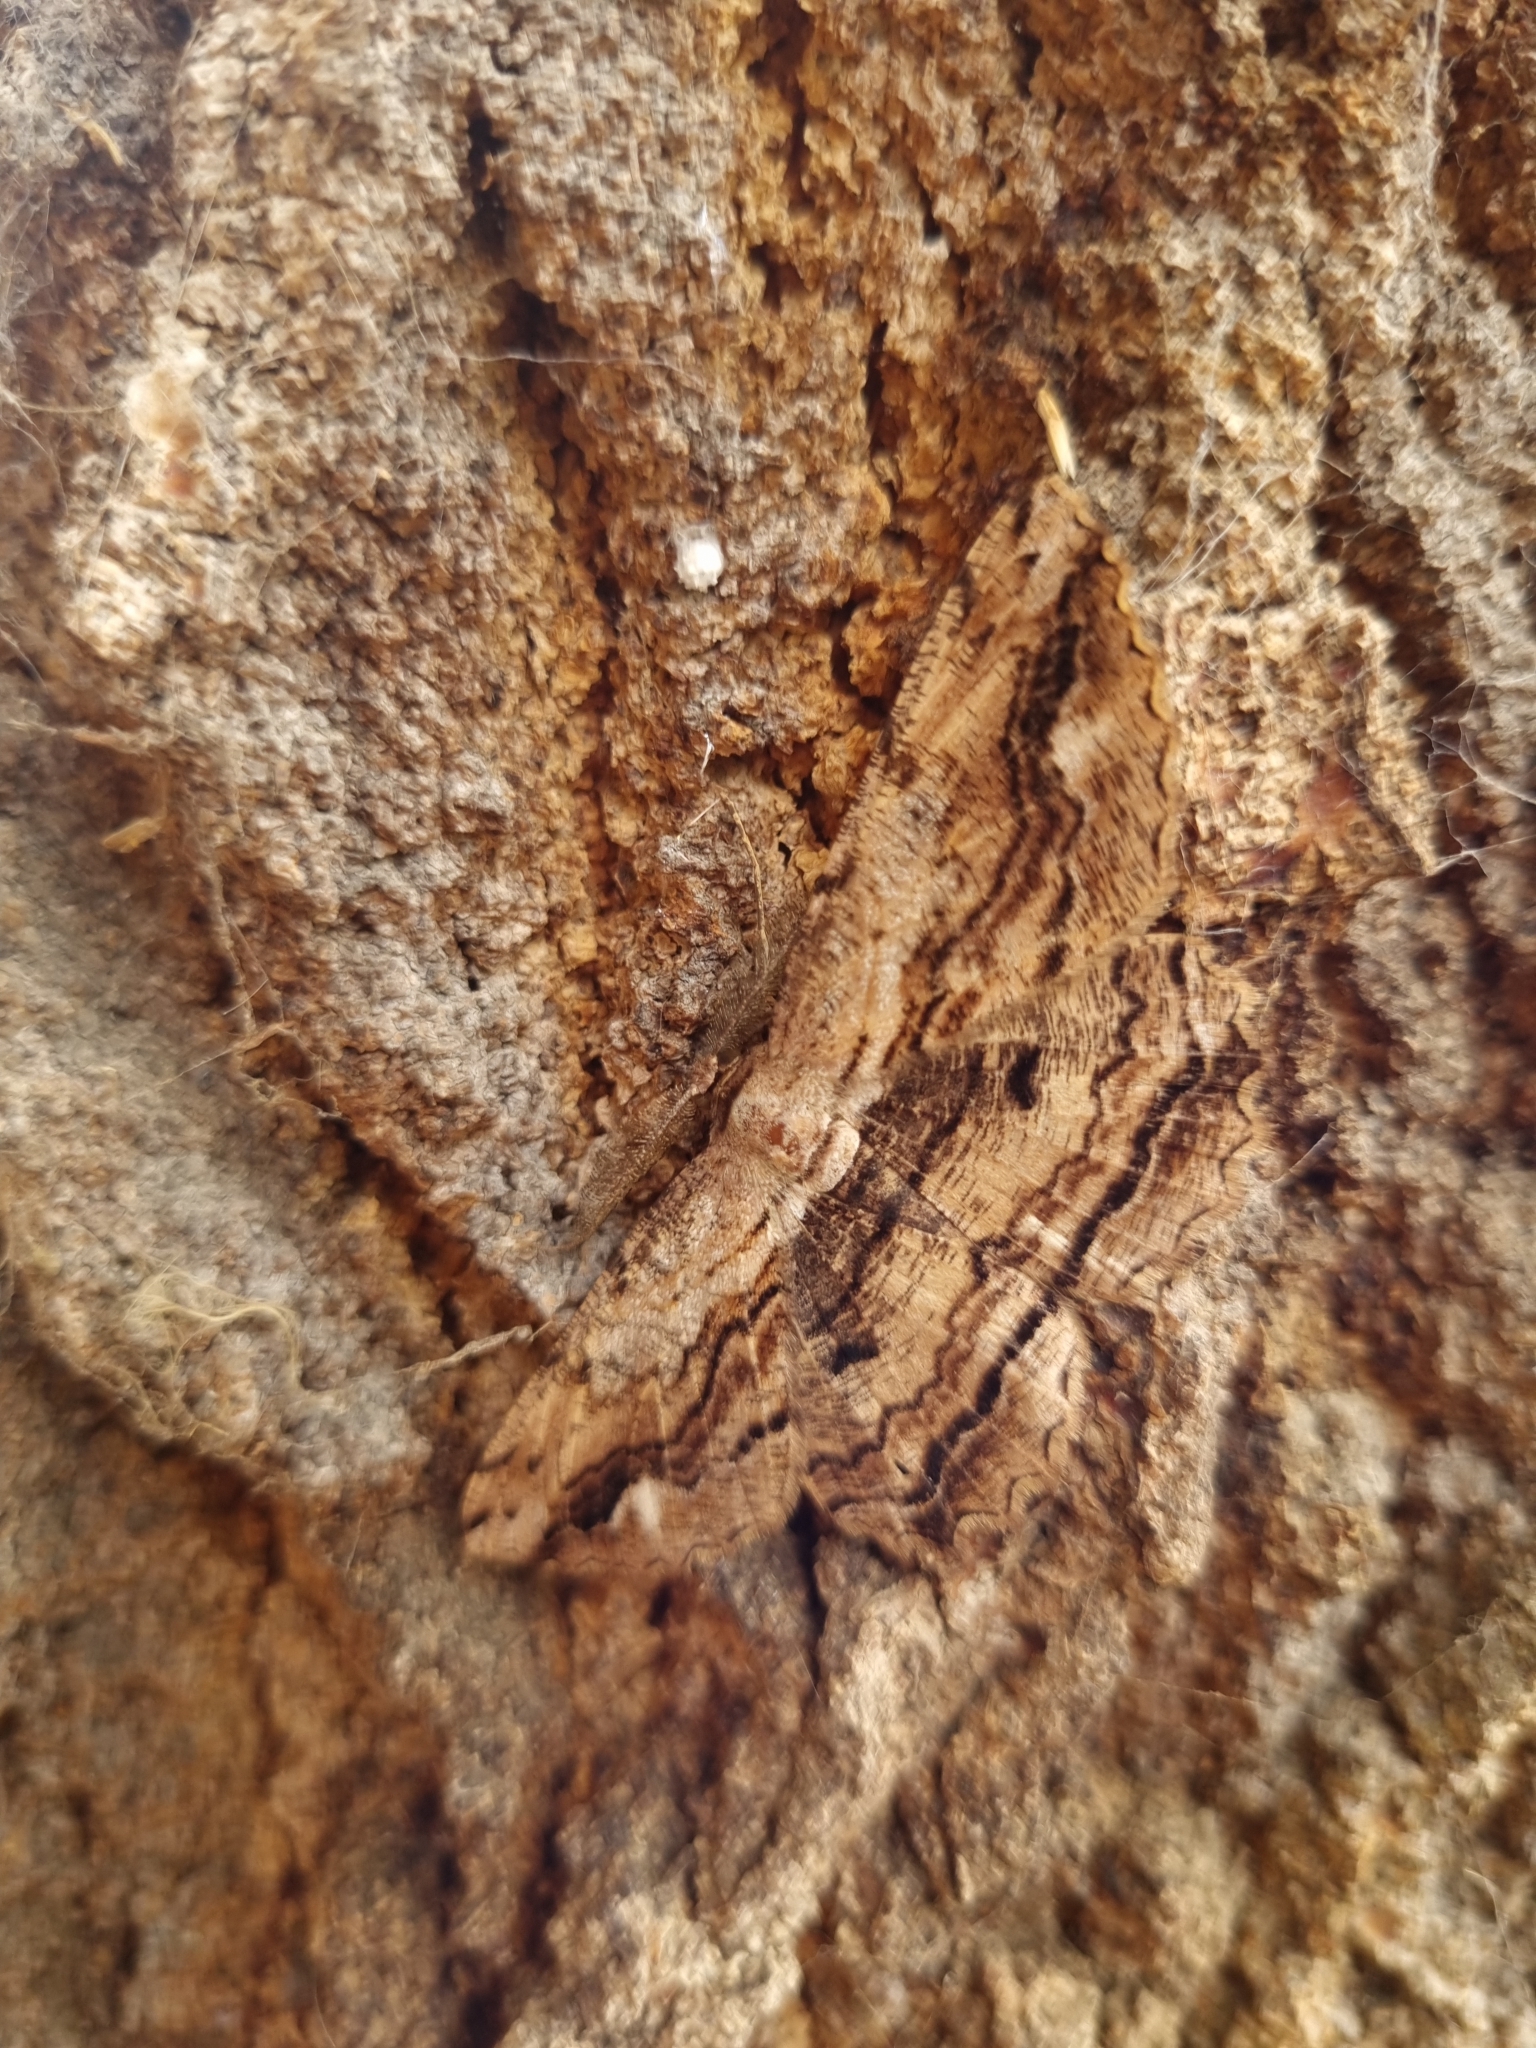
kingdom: Animalia
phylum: Arthropoda
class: Insecta
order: Lepidoptera
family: Geometridae
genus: Scioglyptis
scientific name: Scioglyptis lyciaria
